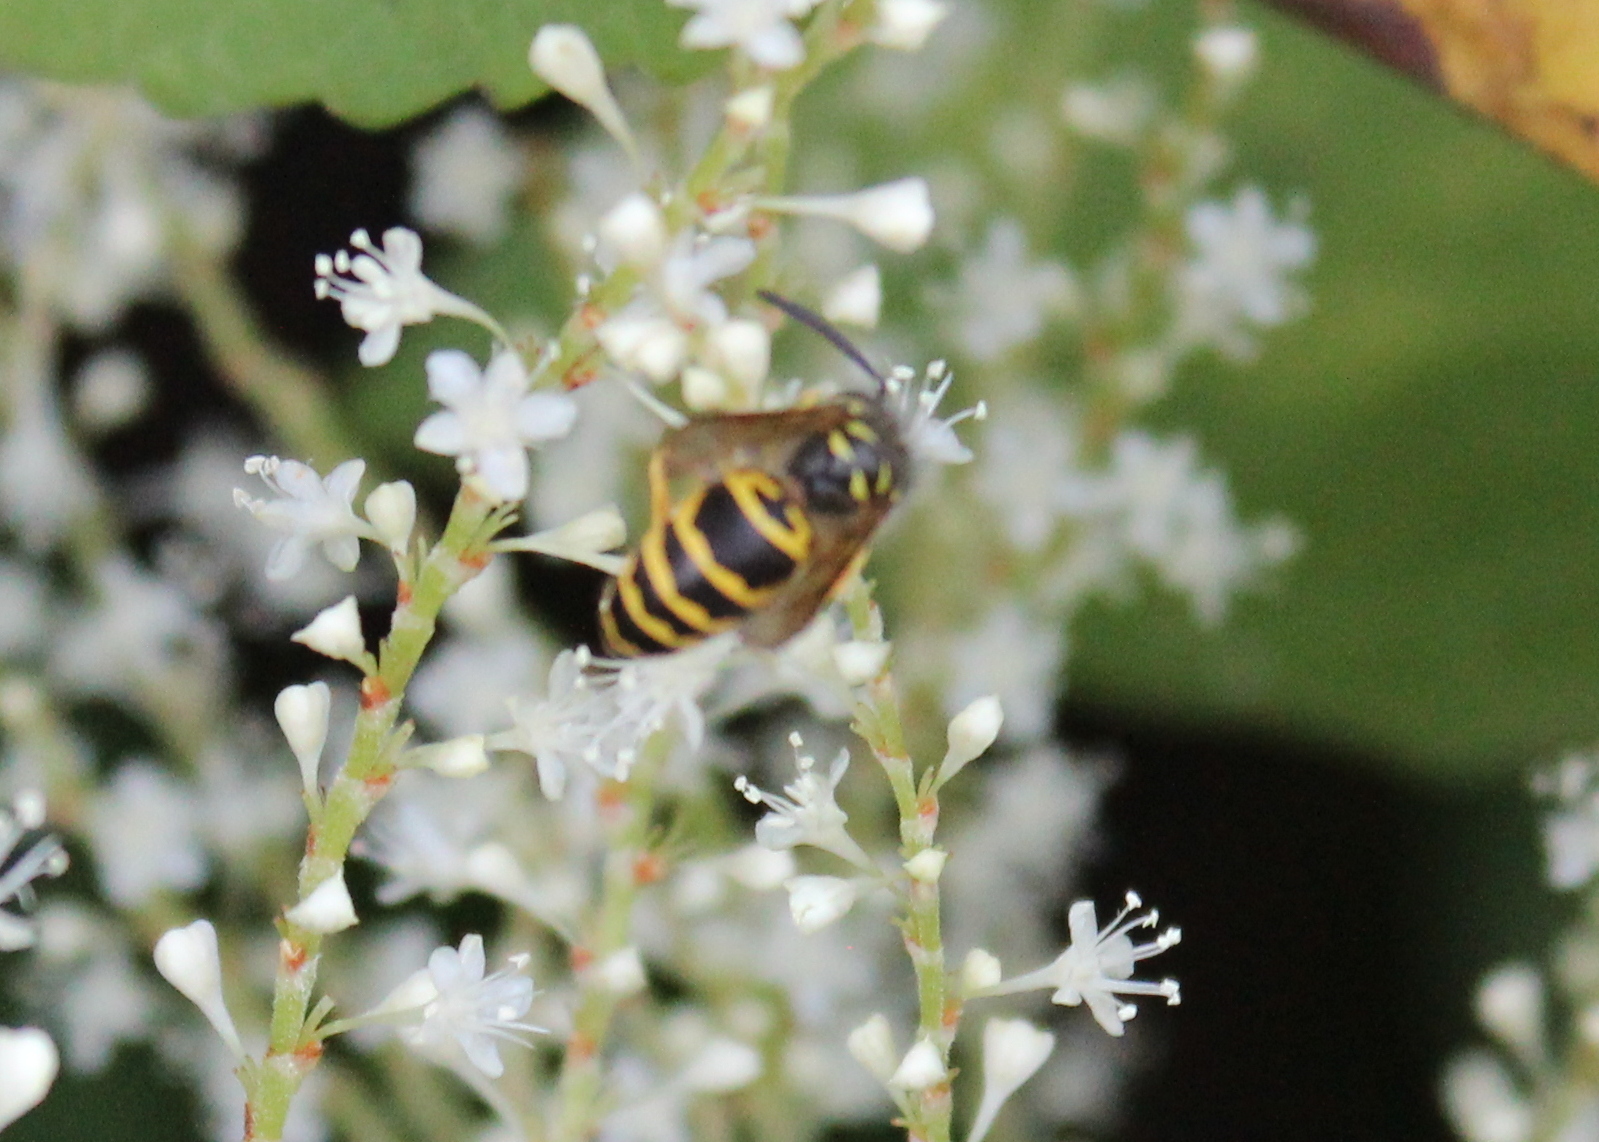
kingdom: Animalia
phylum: Arthropoda
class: Insecta
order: Hymenoptera
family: Vespidae
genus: Vespula
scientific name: Vespula maculifrons
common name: Eastern yellowjacket
